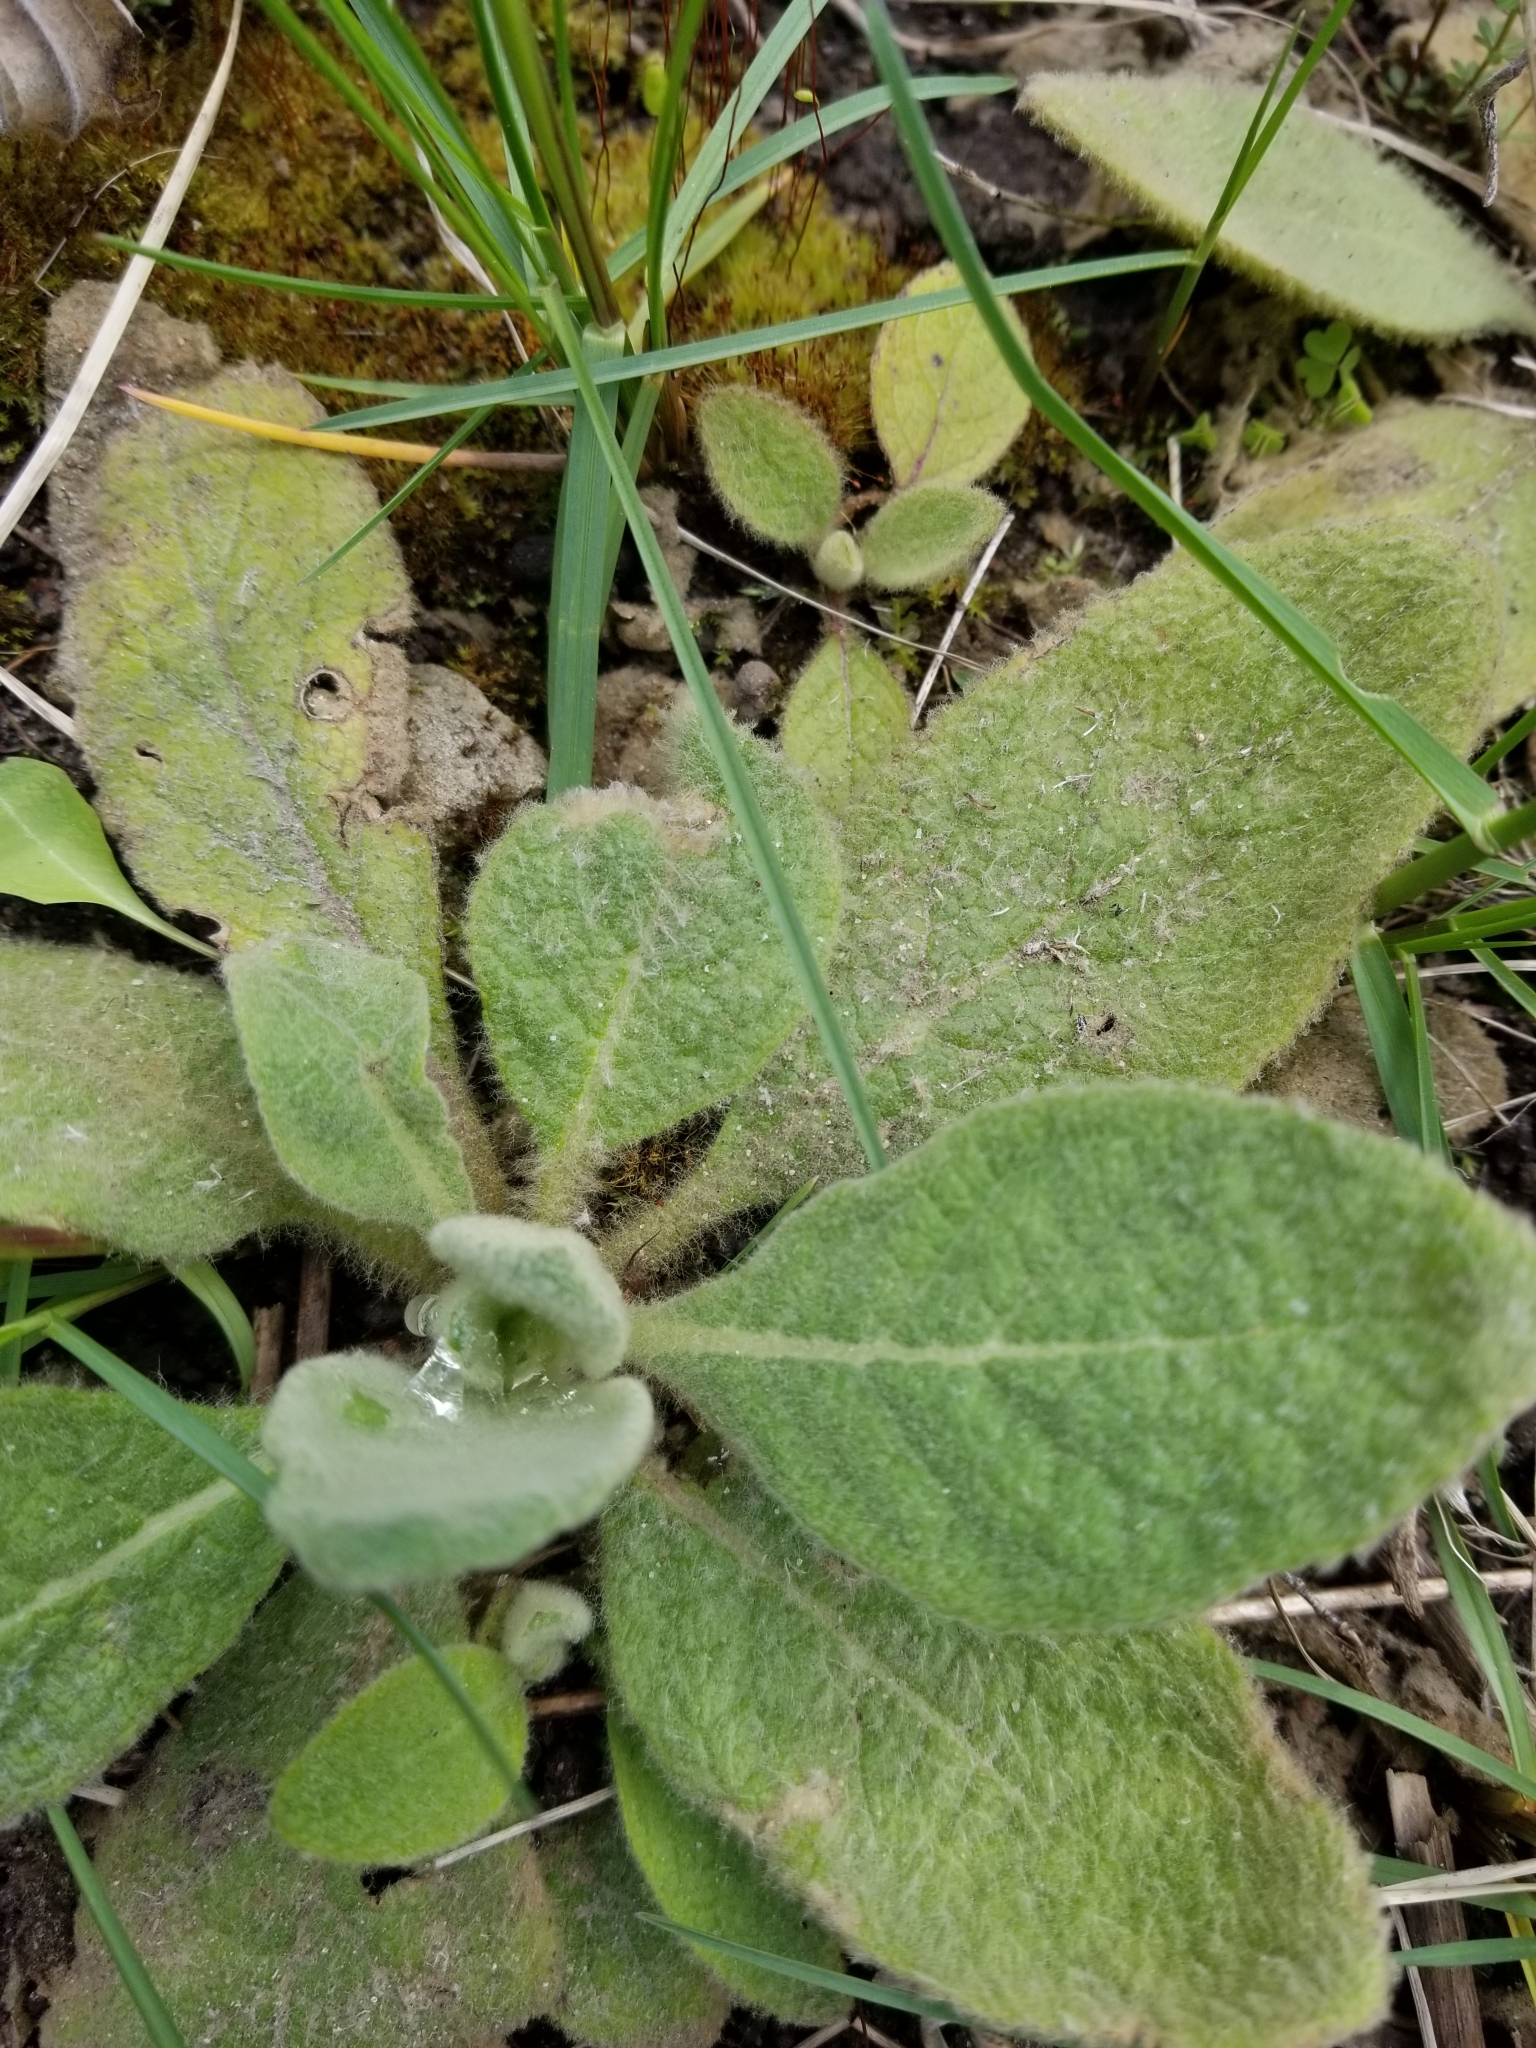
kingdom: Plantae
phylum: Tracheophyta
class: Magnoliopsida
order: Lamiales
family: Scrophulariaceae
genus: Verbascum
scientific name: Verbascum thapsus
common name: Common mullein
